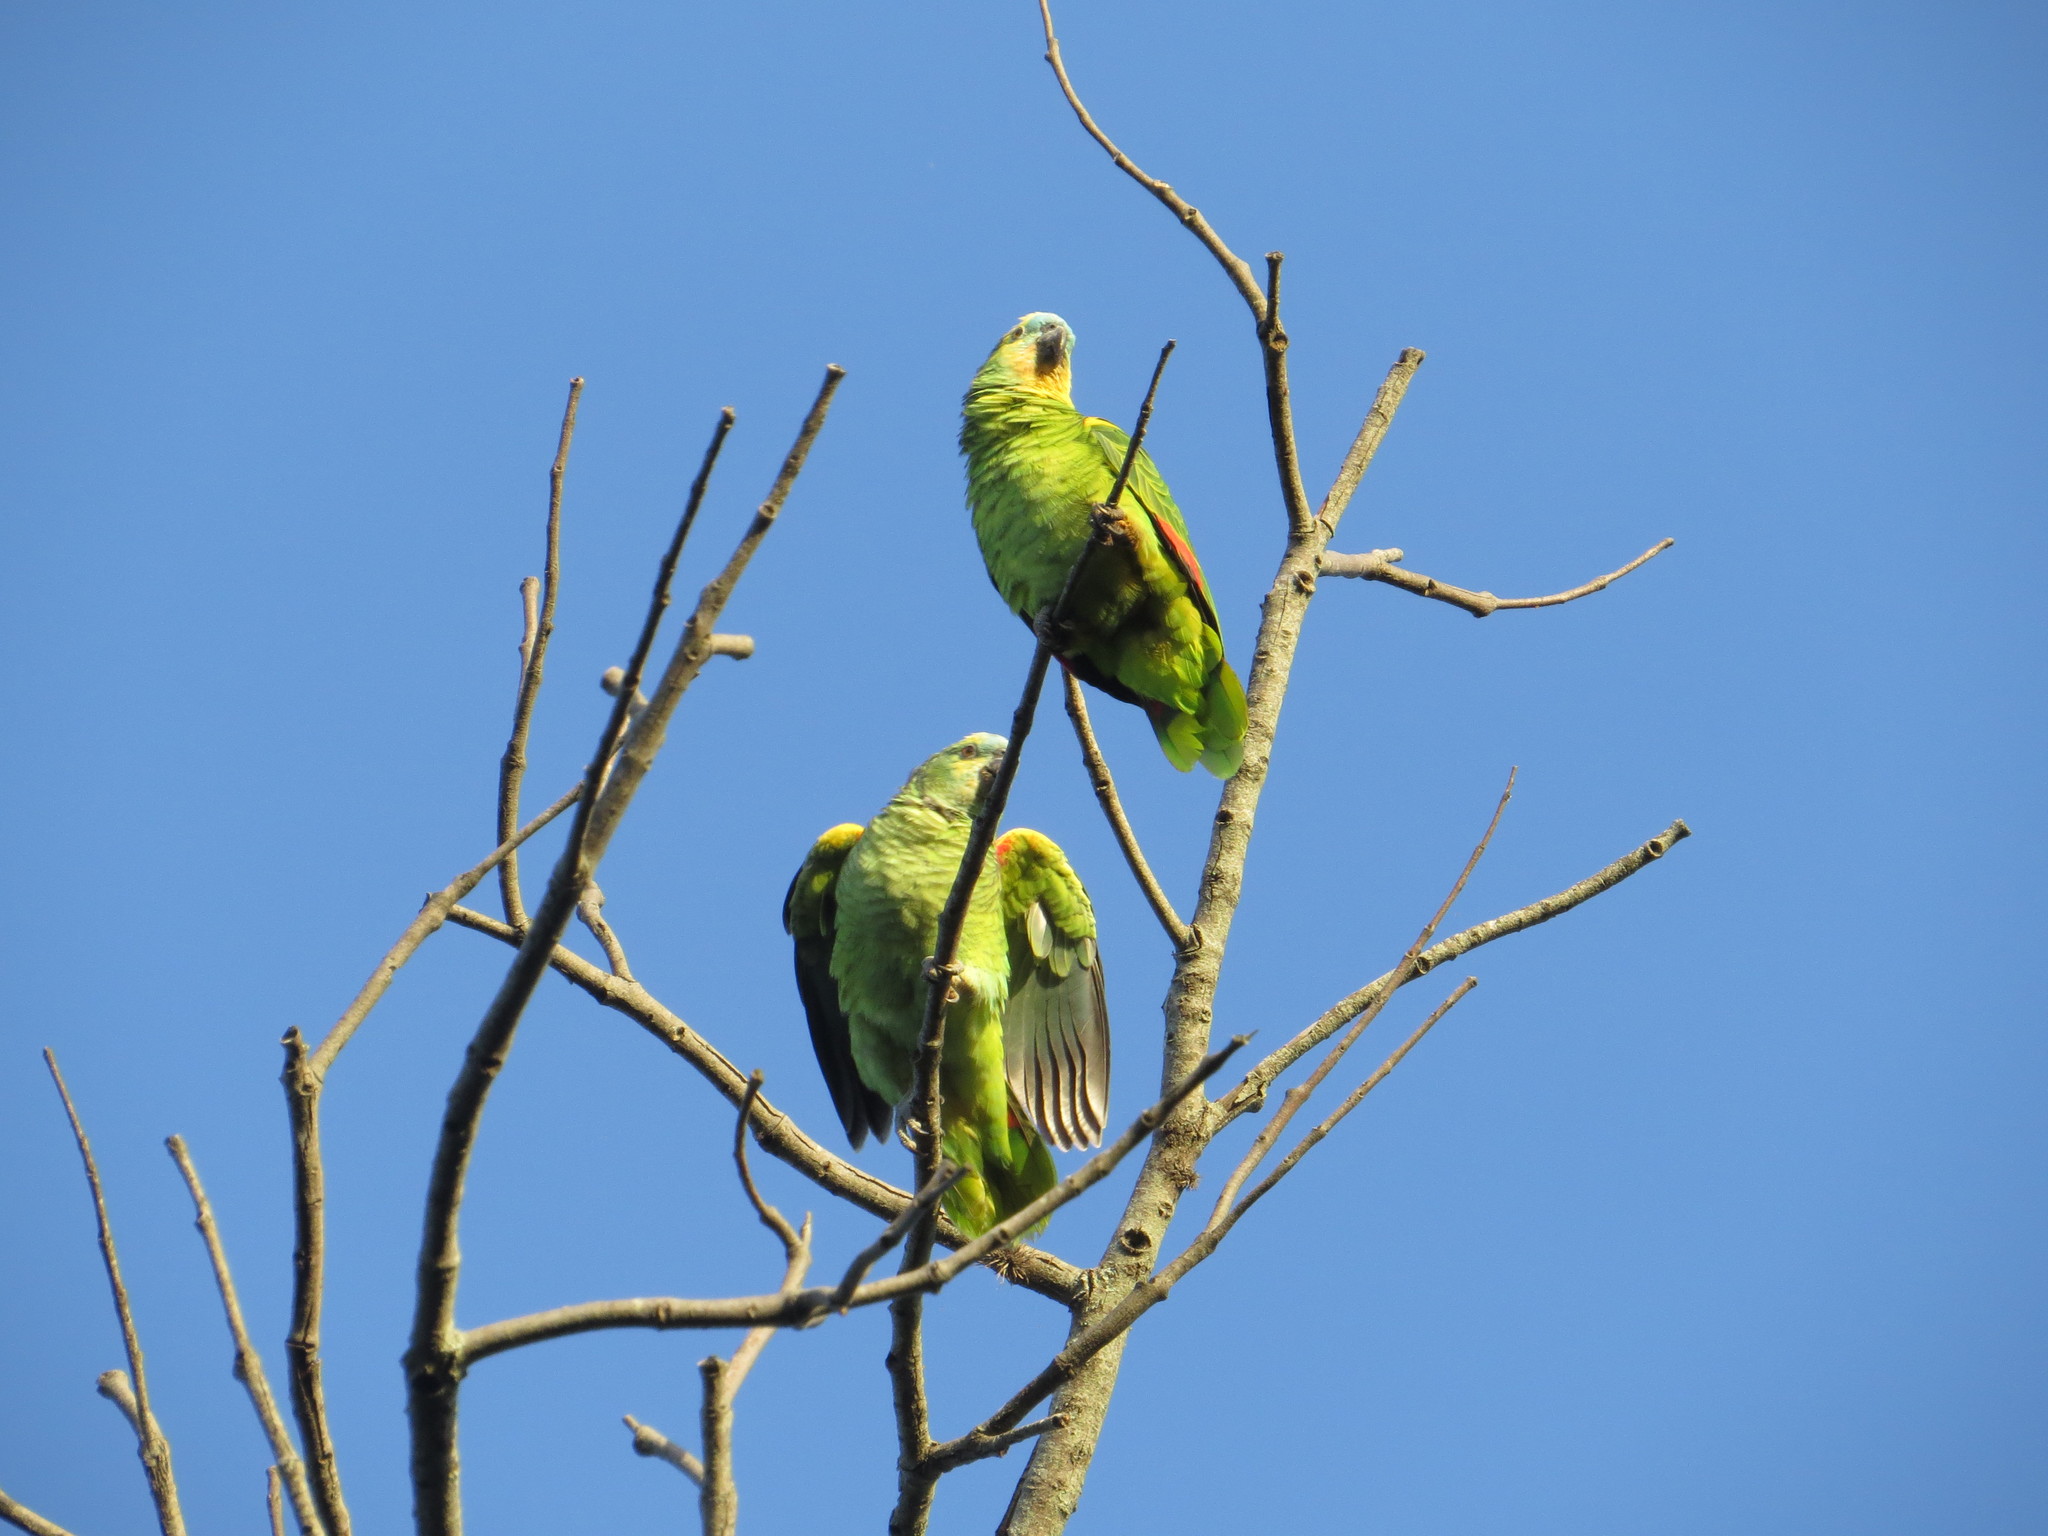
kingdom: Animalia
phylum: Chordata
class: Aves
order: Psittaciformes
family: Psittacidae
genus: Amazona
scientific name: Amazona aestiva
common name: Turquoise-fronted amazon
